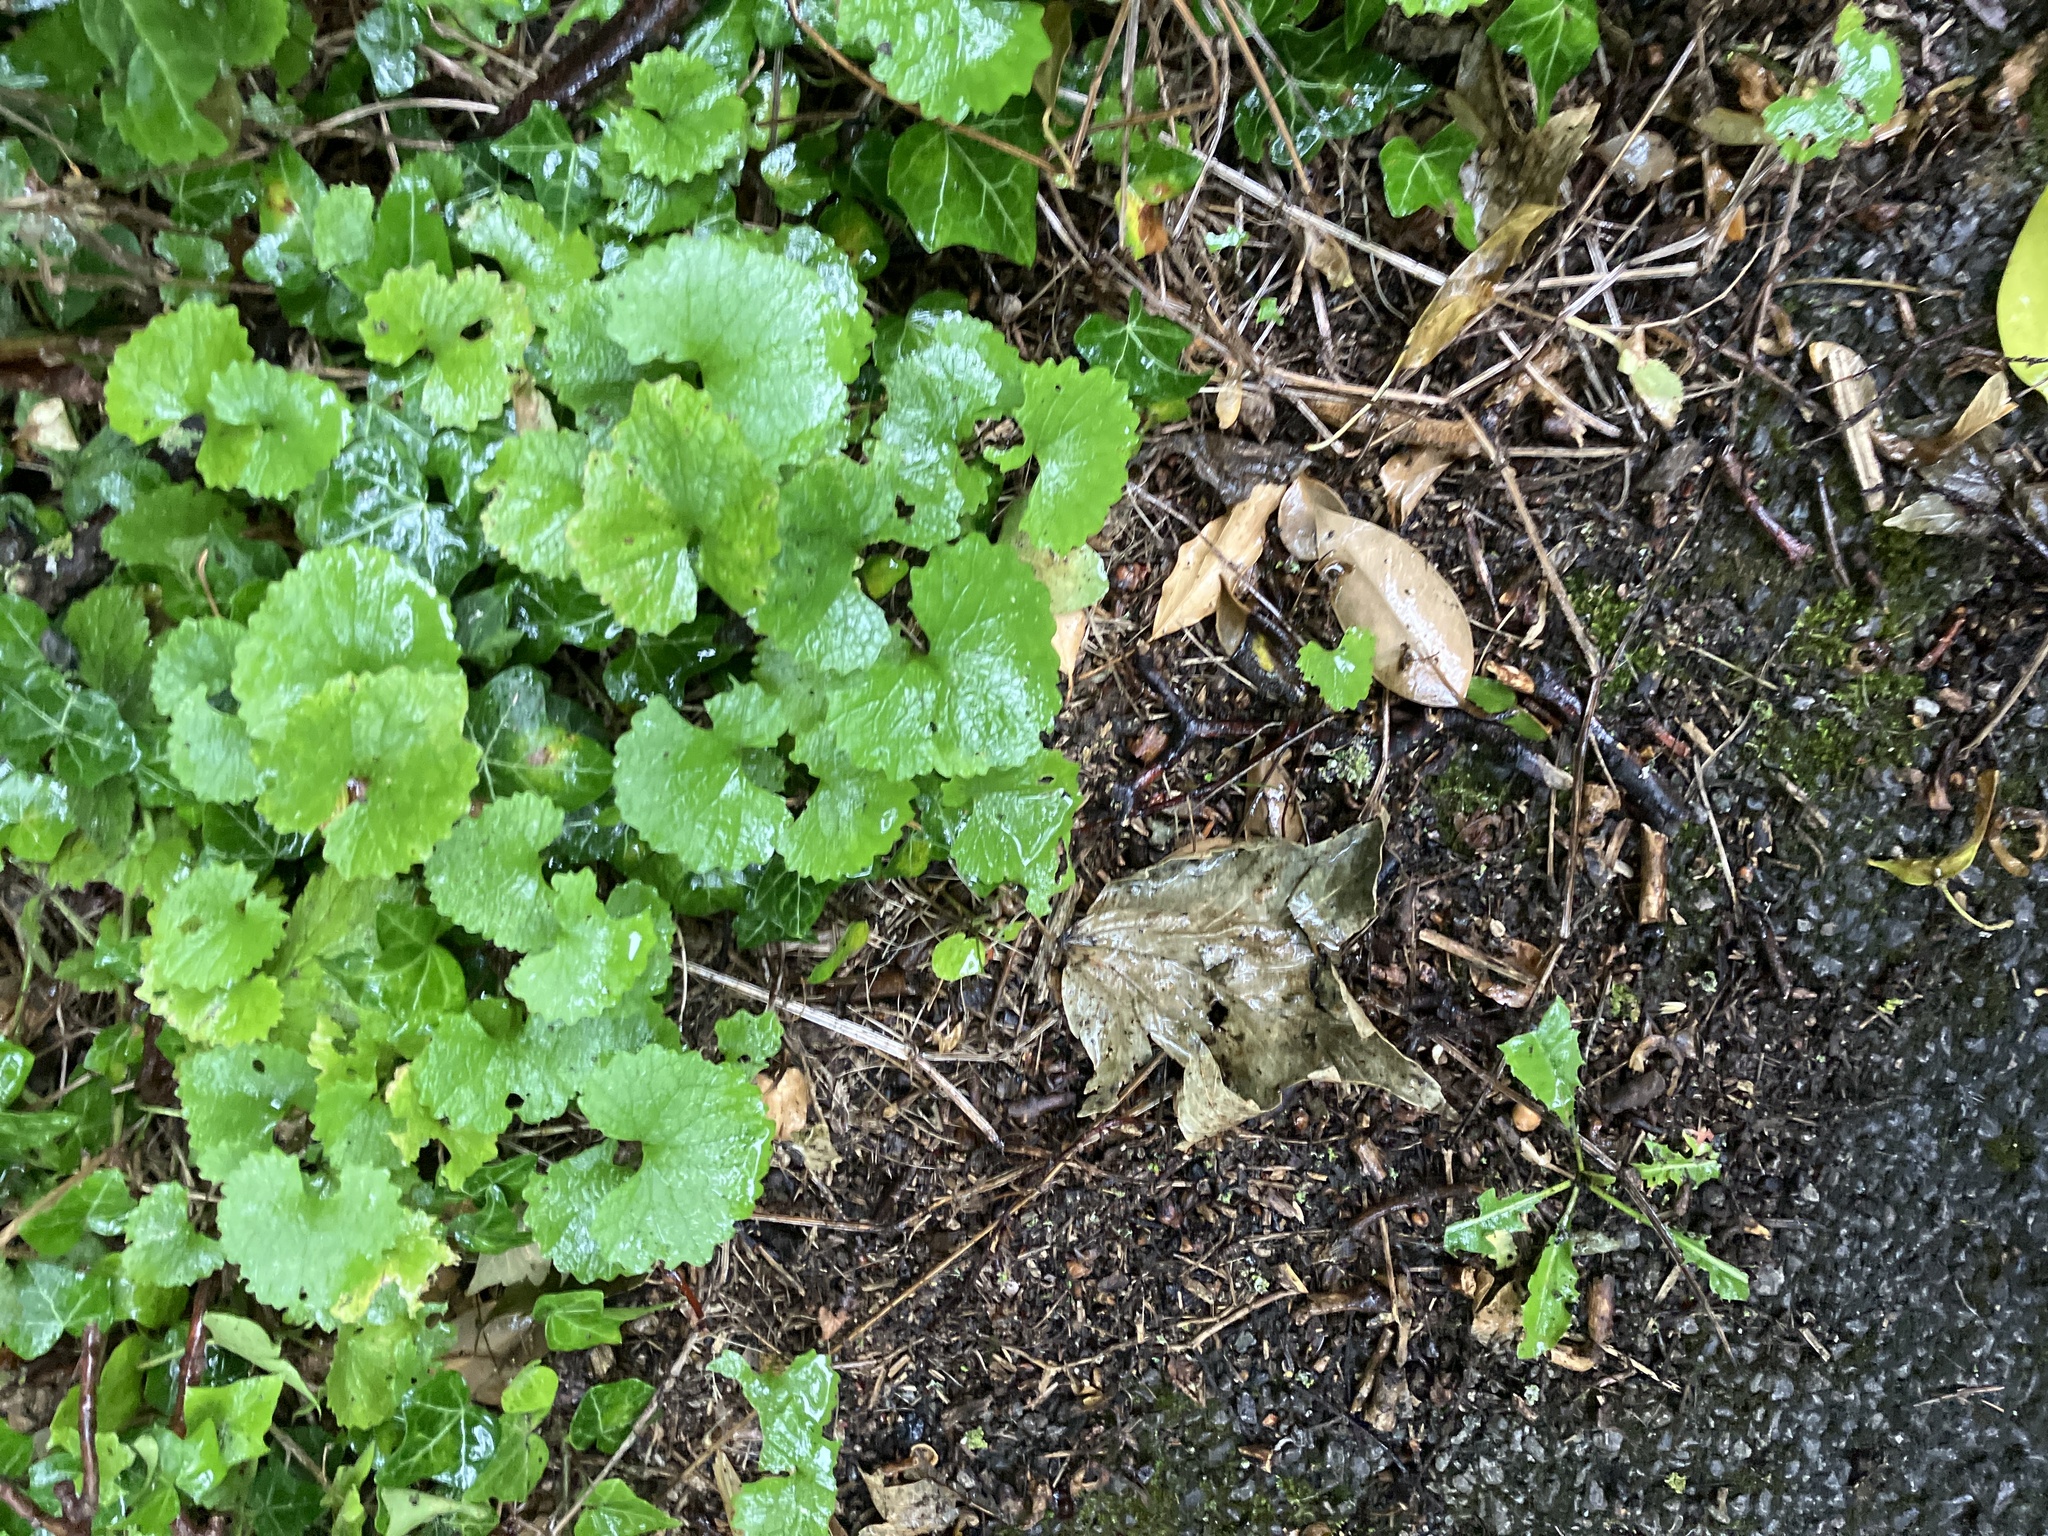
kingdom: Plantae
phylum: Tracheophyta
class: Magnoliopsida
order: Brassicales
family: Brassicaceae
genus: Alliaria
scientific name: Alliaria petiolata
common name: Garlic mustard
